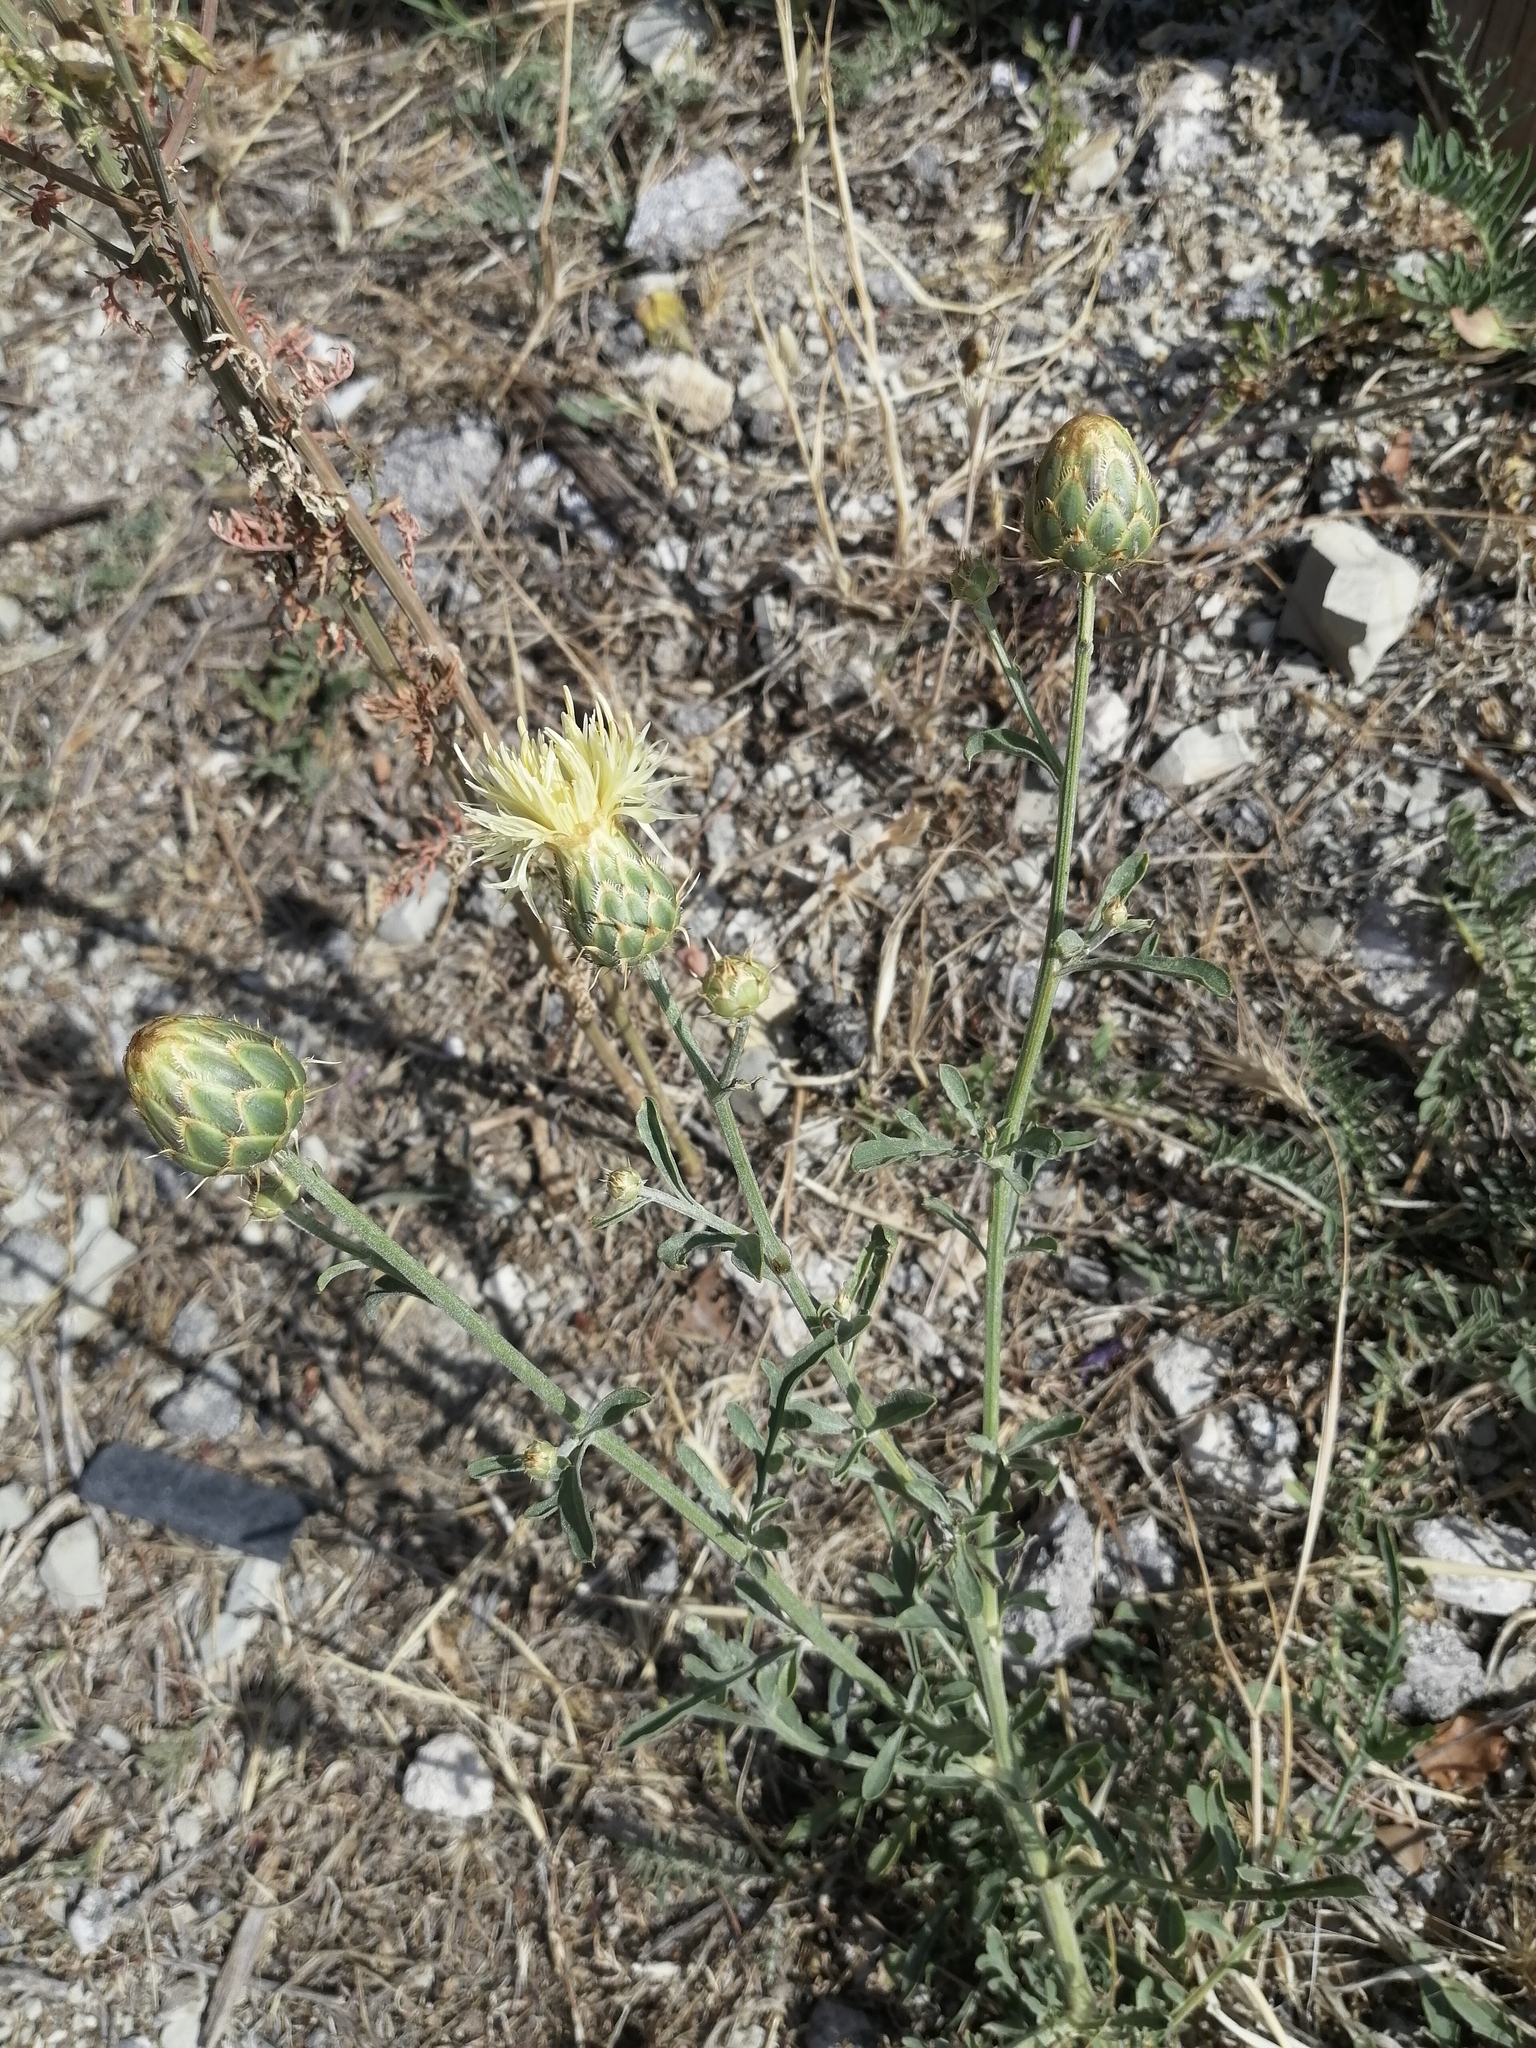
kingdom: Plantae
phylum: Tracheophyta
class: Magnoliopsida
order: Asterales
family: Asteraceae
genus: Centaurea
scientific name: Centaurea salonitana
